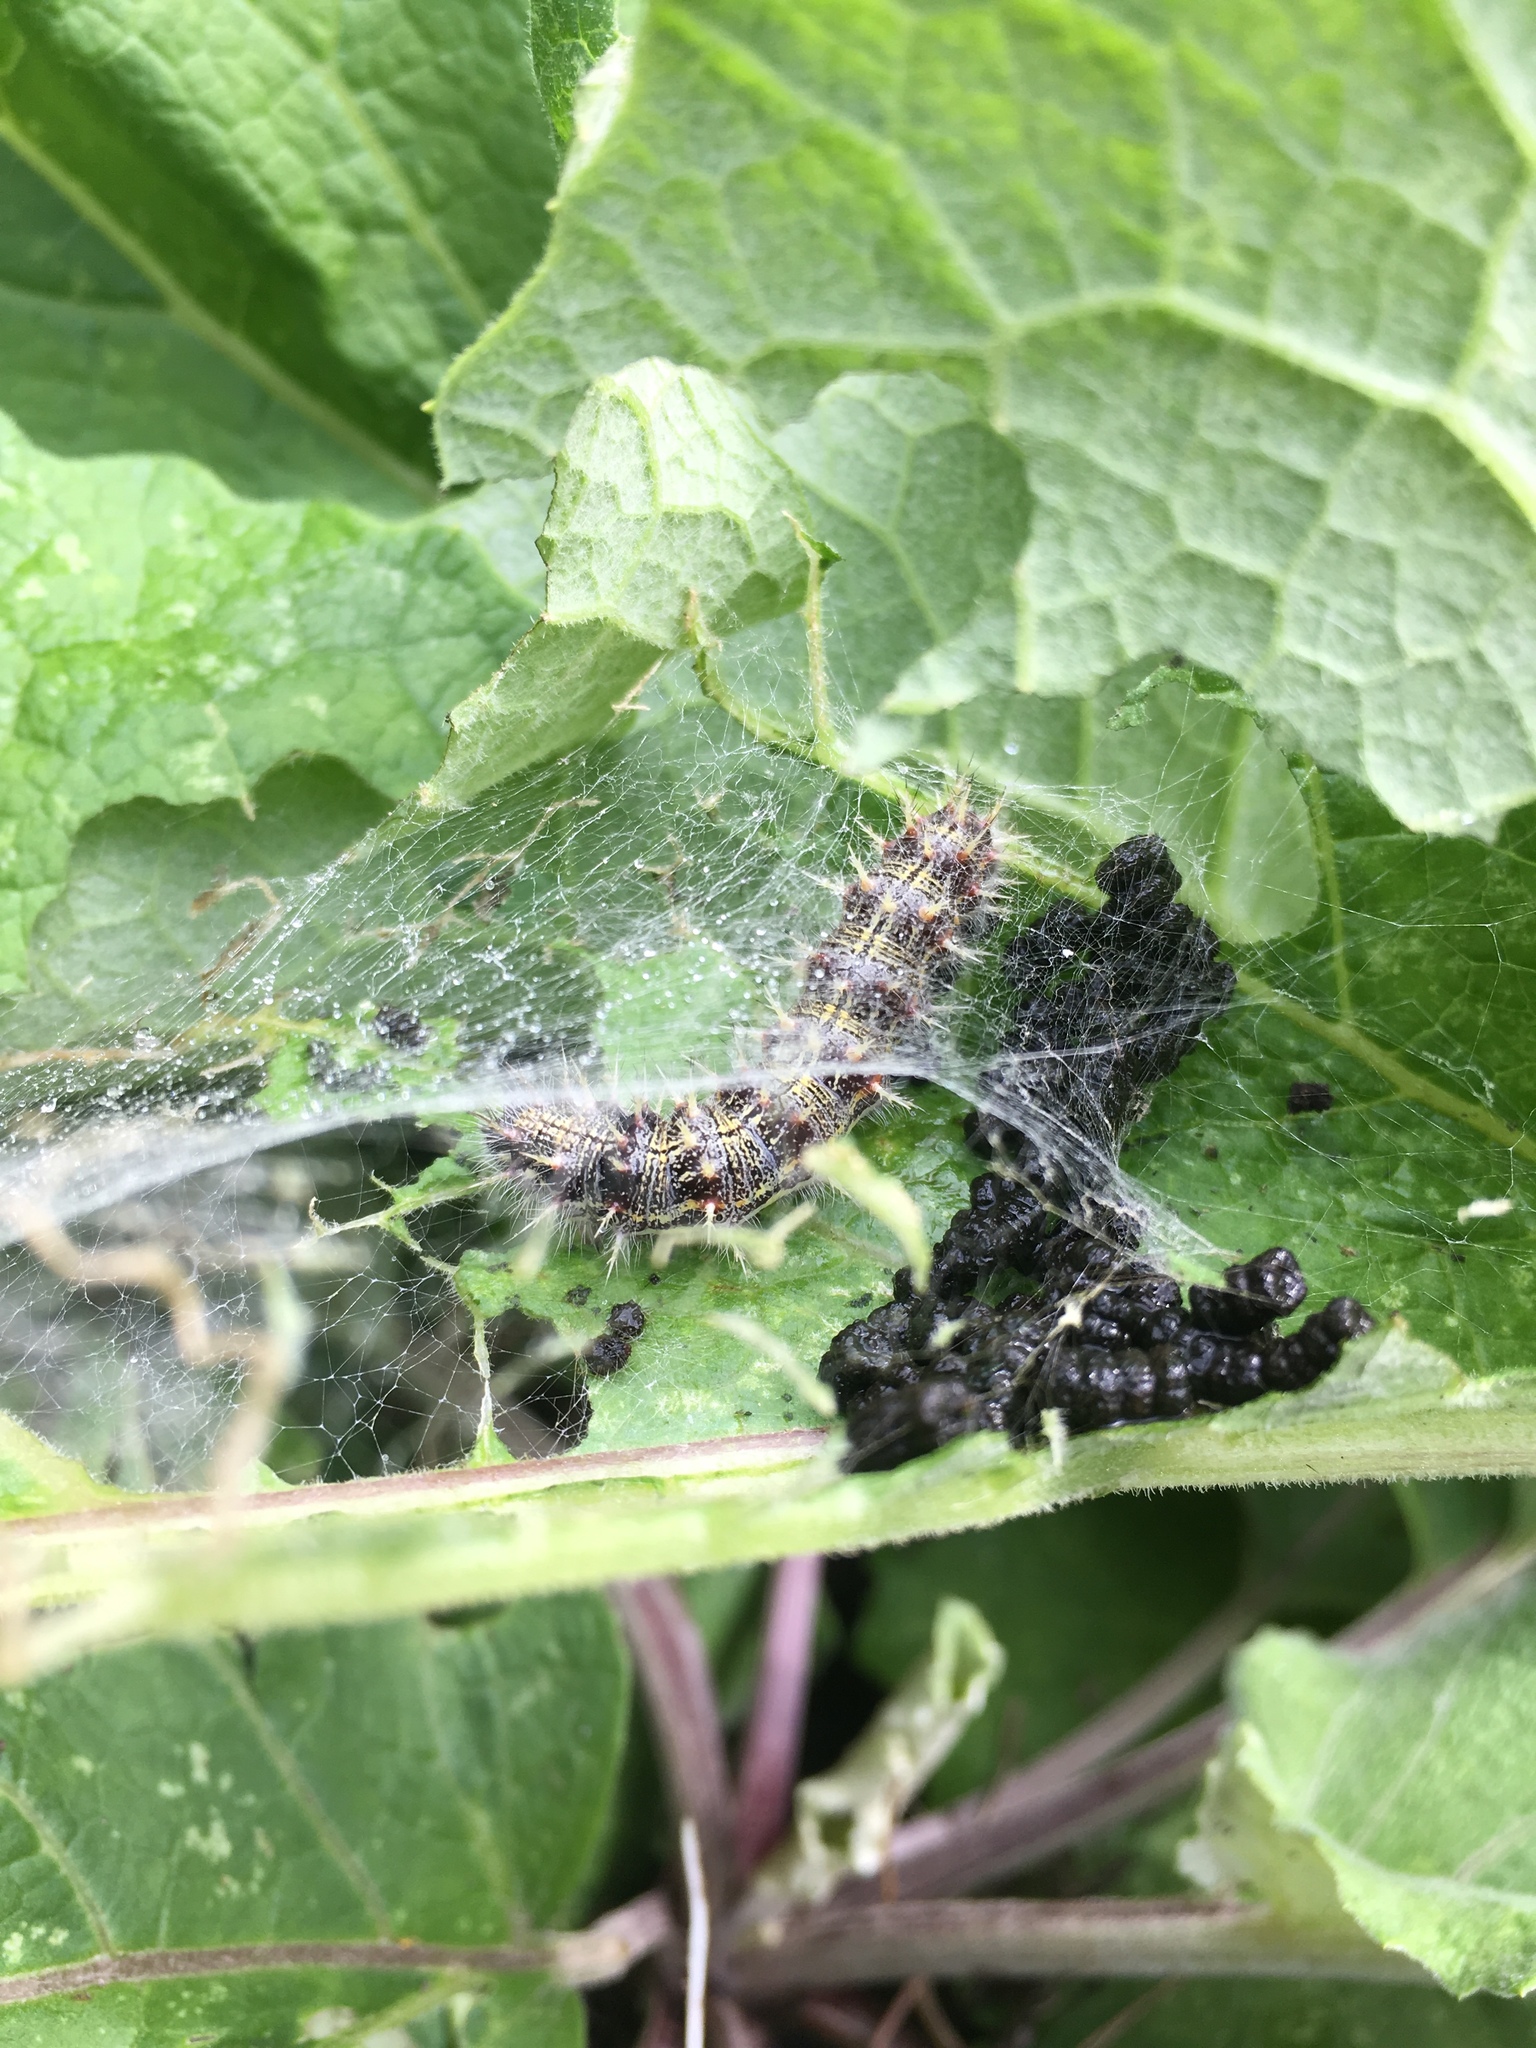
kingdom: Animalia
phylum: Arthropoda
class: Insecta
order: Lepidoptera
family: Nymphalidae
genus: Vanessa
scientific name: Vanessa cardui
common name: Painted lady
